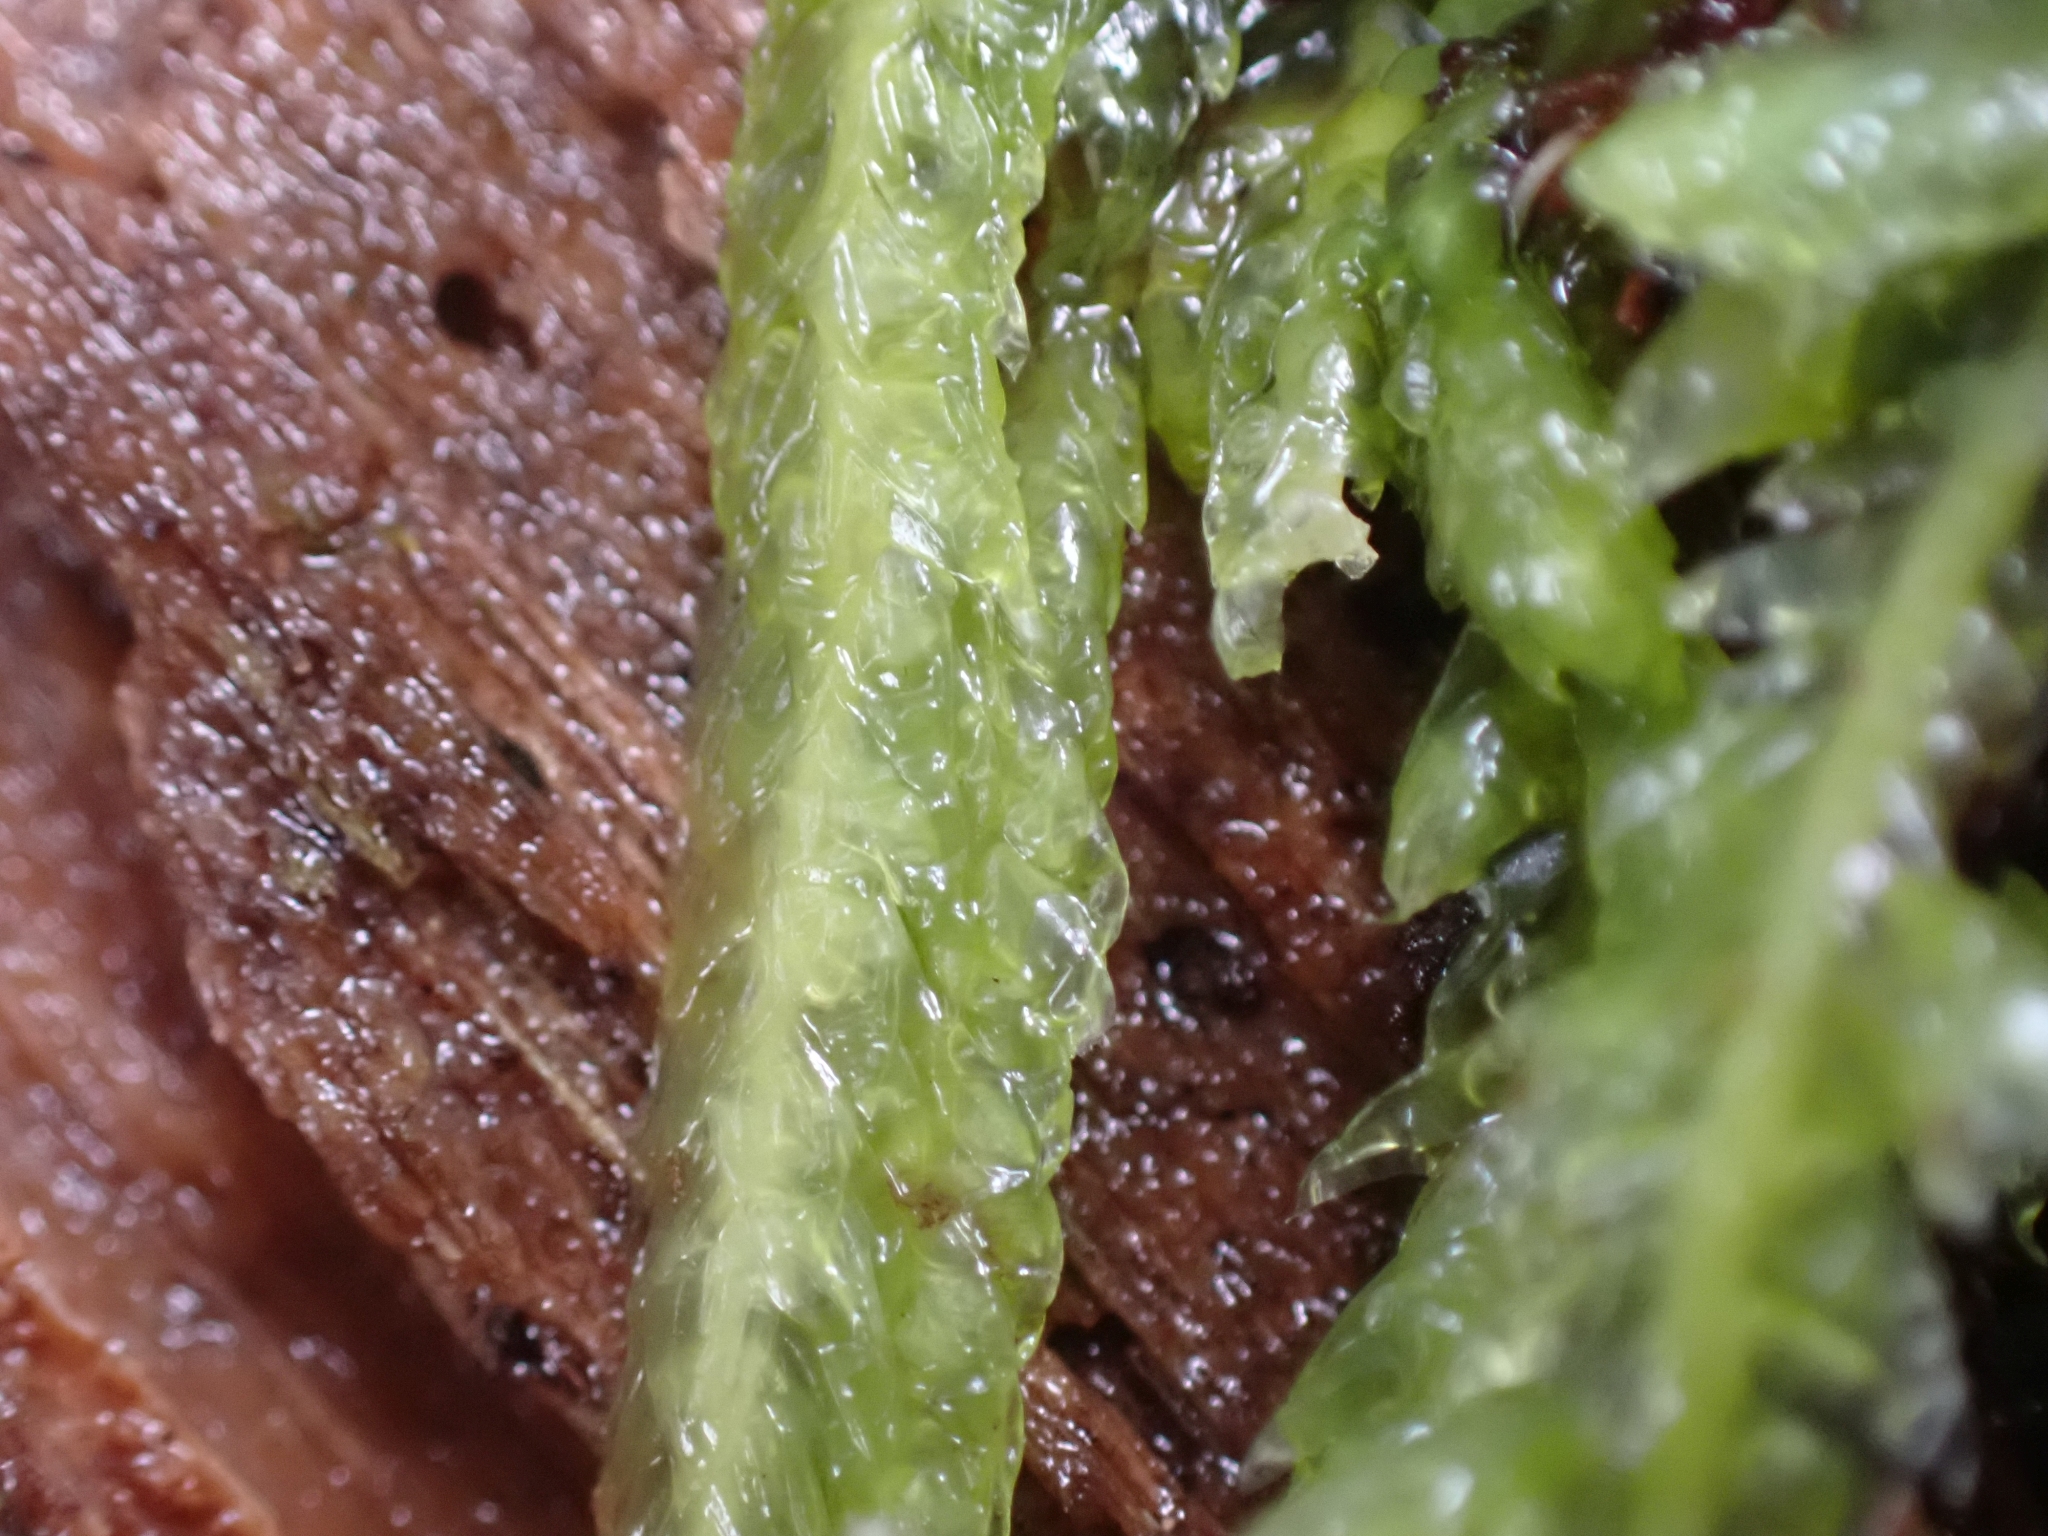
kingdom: Plantae
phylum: Bryophyta
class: Bryopsida
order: Hypnales
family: Plagiotheciaceae
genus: Plagiothecium
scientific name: Plagiothecium undulatum
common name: Waved silk-moss
